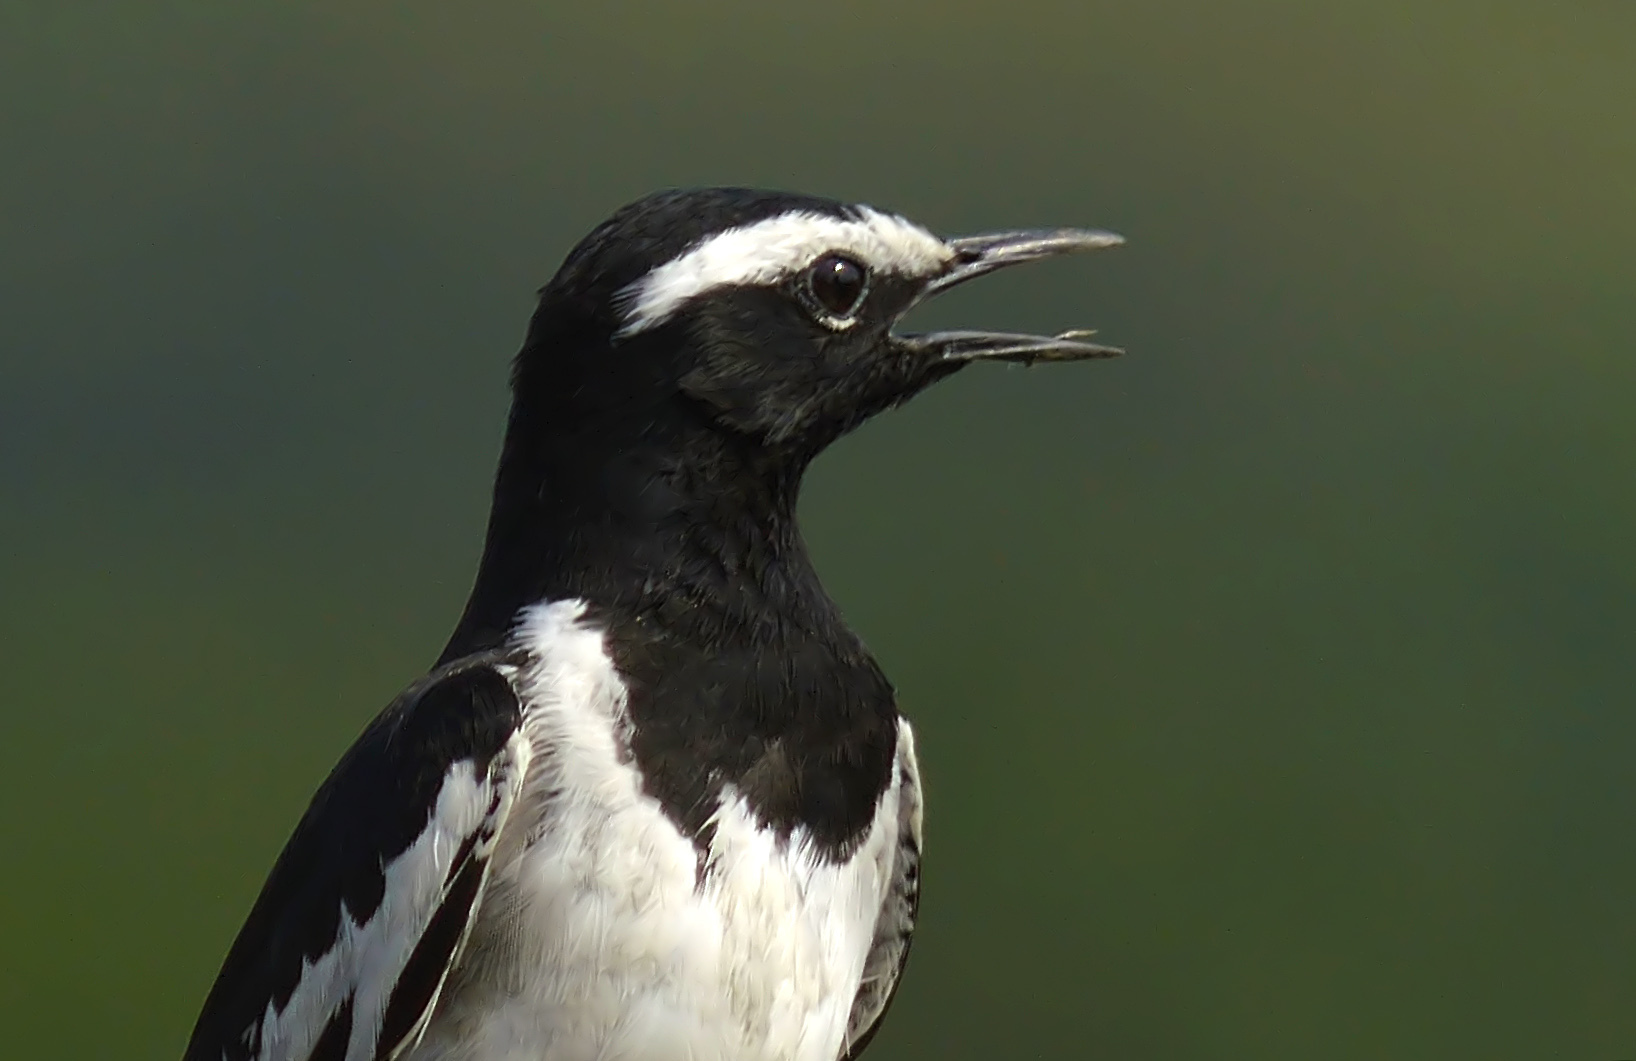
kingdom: Animalia
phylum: Chordata
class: Aves
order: Passeriformes
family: Motacillidae
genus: Motacilla
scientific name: Motacilla maderaspatensis
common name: White-browed wagtail
